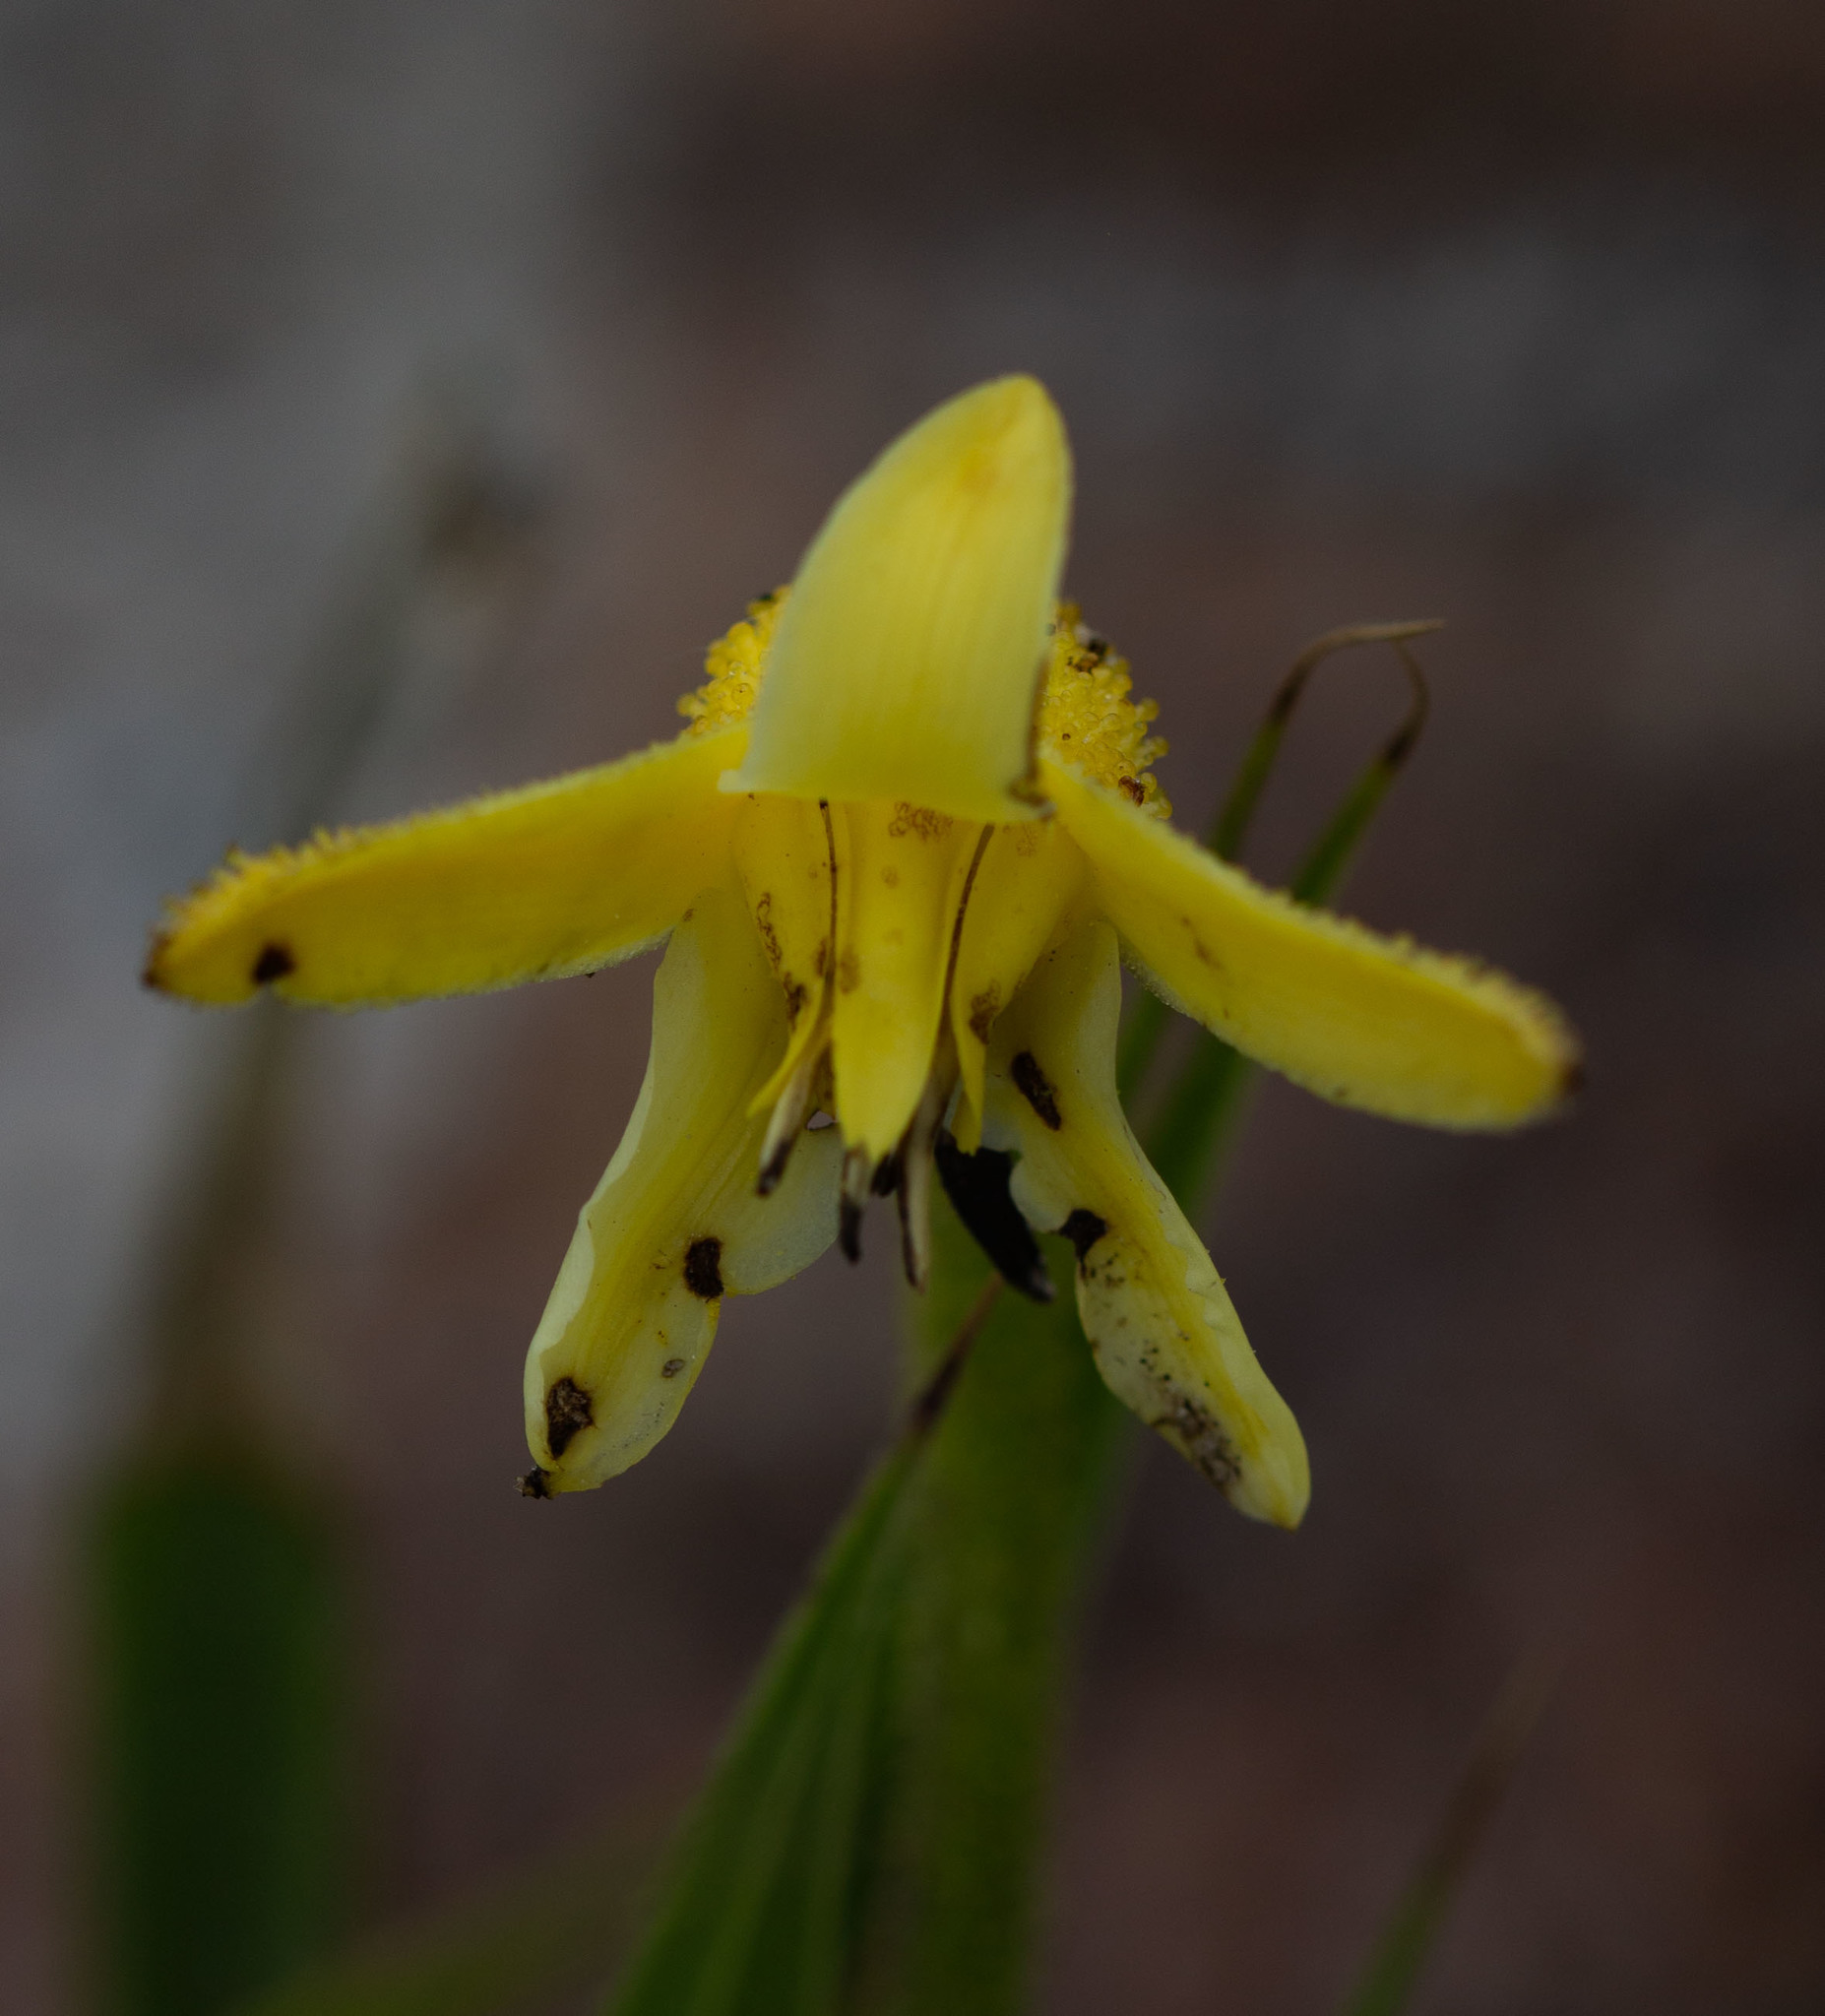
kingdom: Plantae
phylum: Tracheophyta
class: Liliopsida
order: Pandanales
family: Velloziaceae
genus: Barbacenia
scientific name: Barbacenia flava
